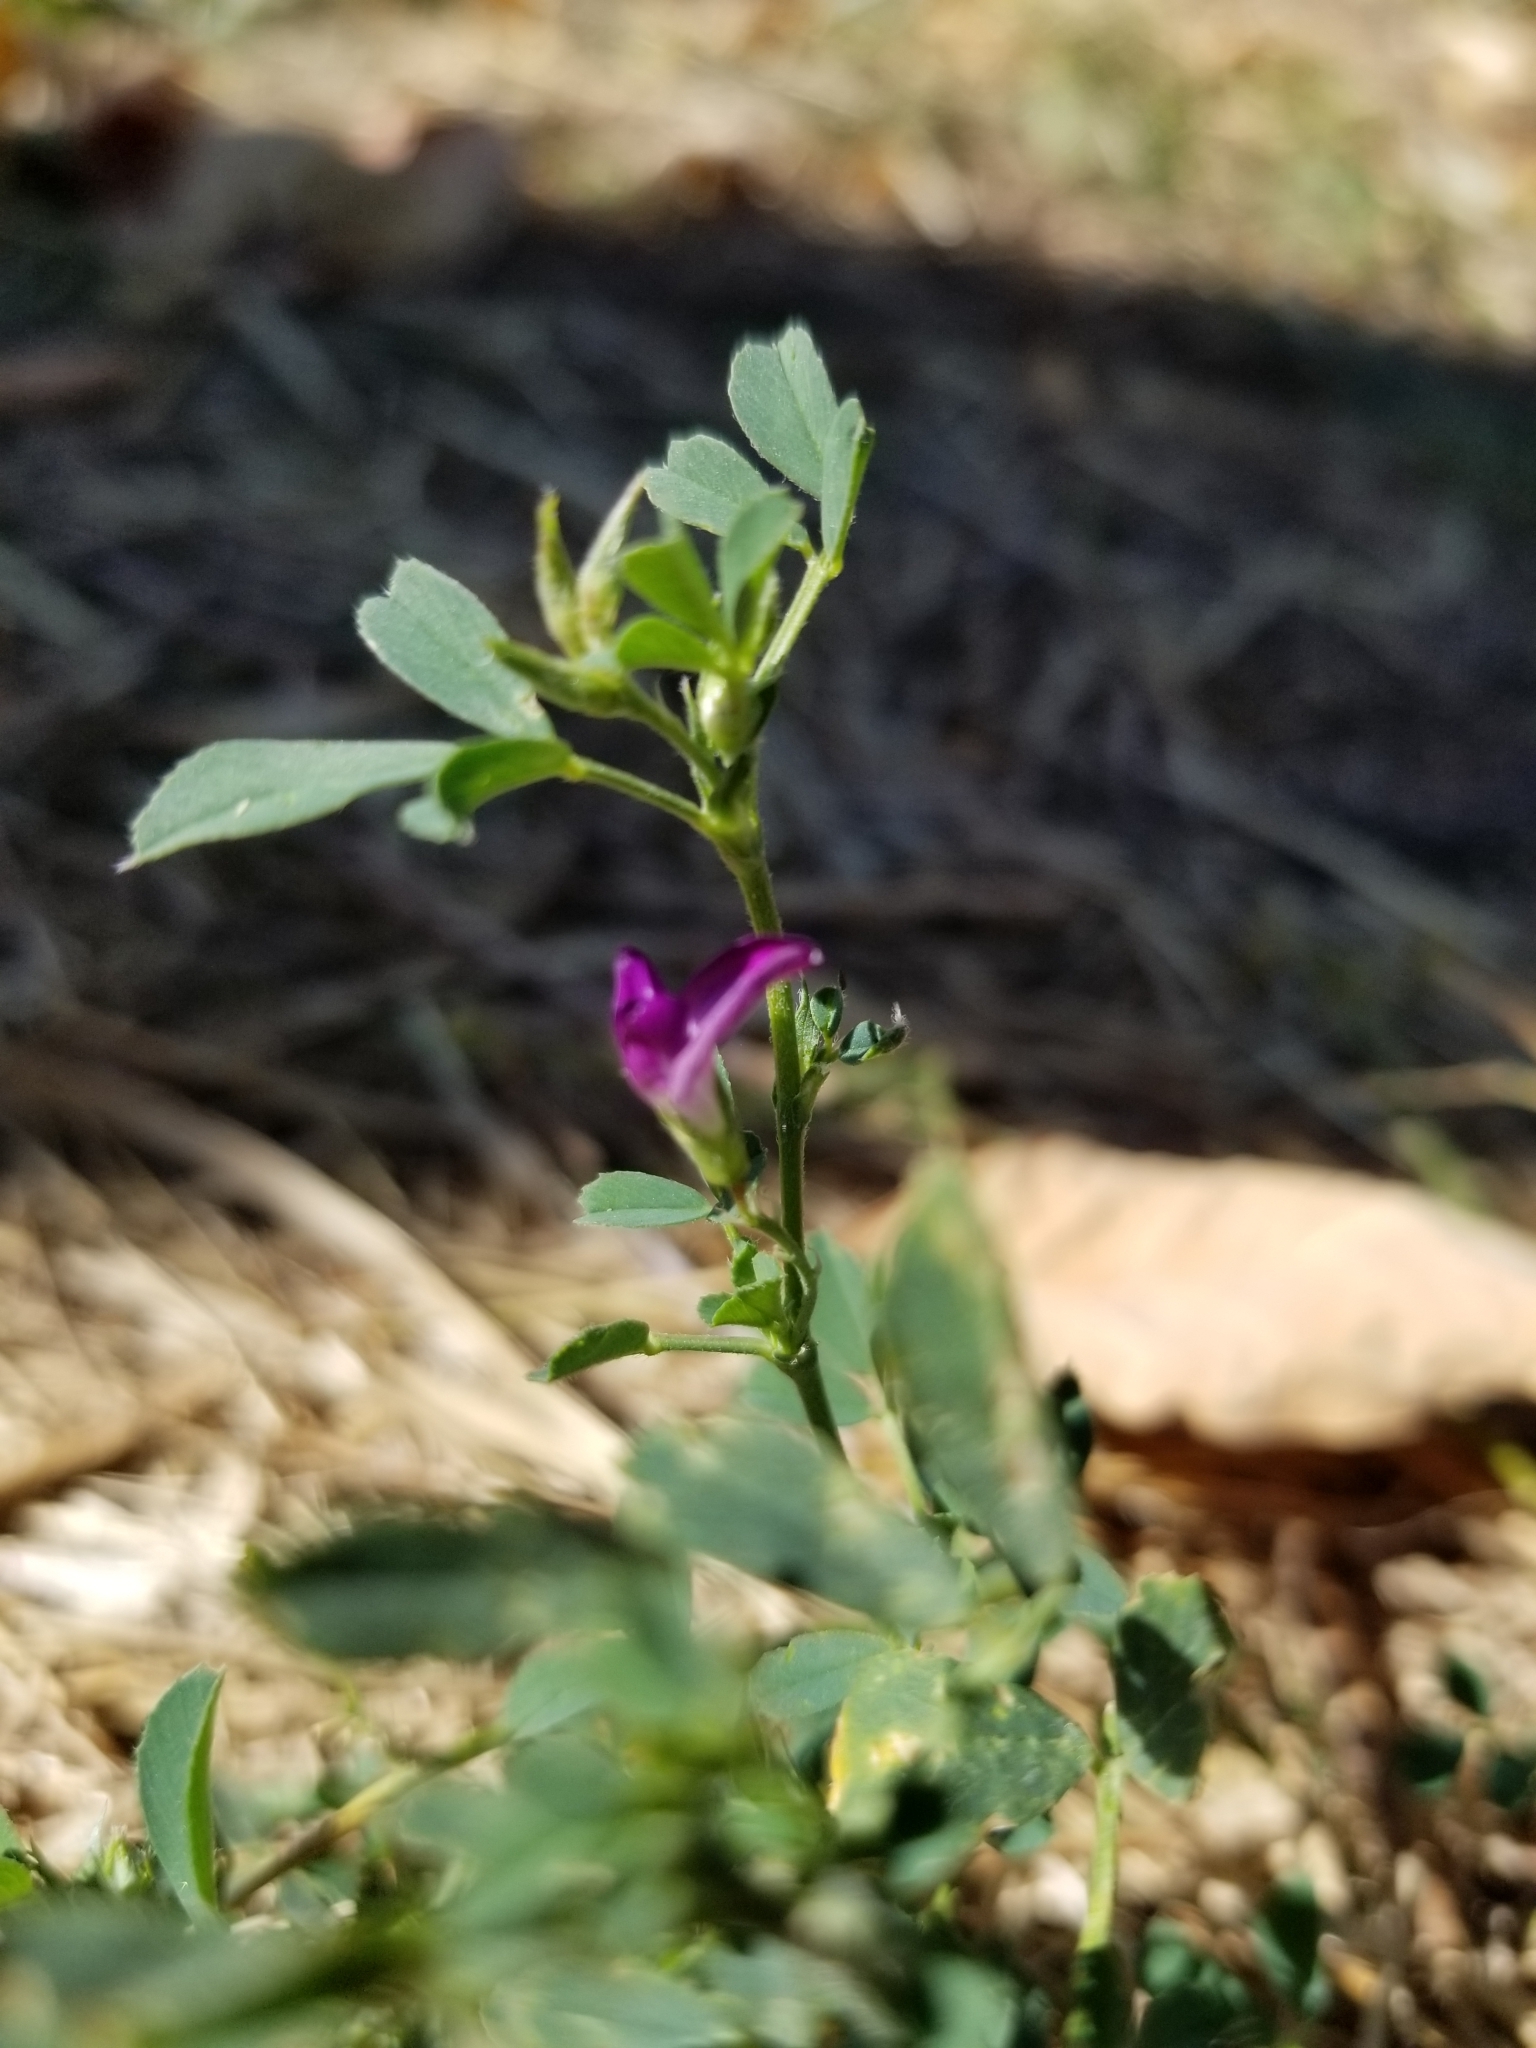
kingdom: Plantae
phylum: Tracheophyta
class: Magnoliopsida
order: Fabales
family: Fabaceae
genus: Medicago
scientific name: Medicago sativa
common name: Alfalfa
